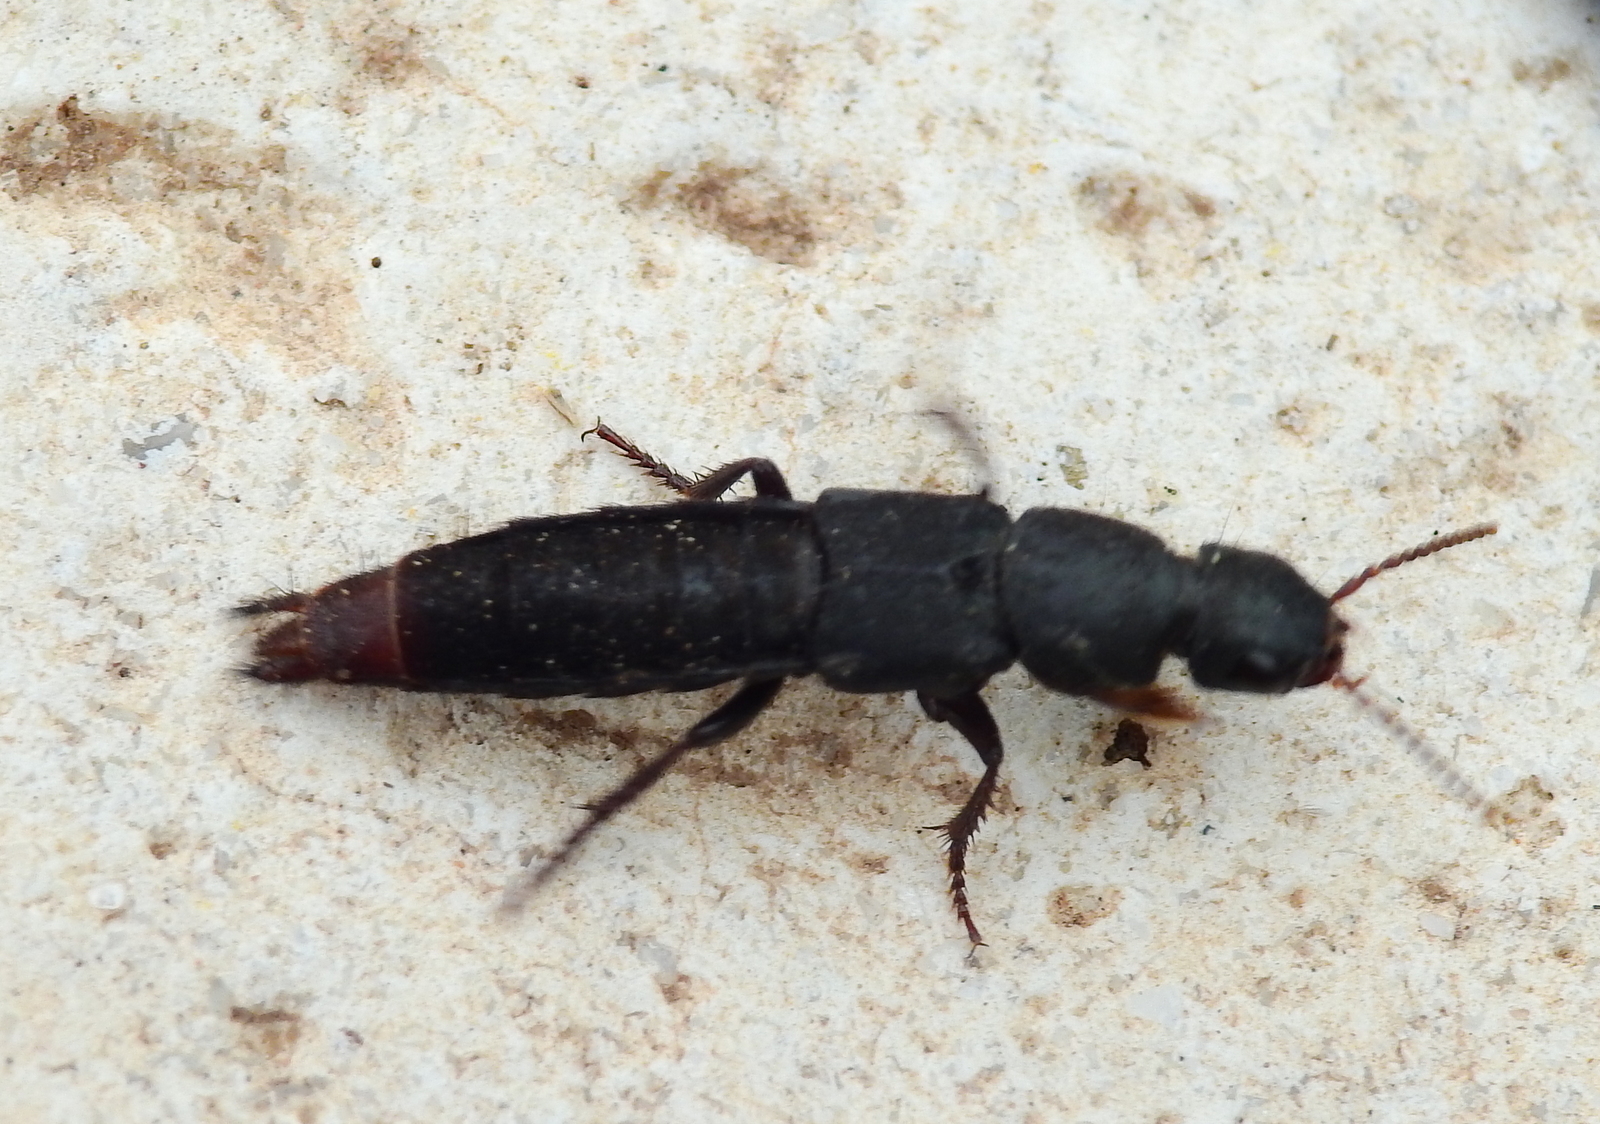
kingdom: Animalia
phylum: Arthropoda
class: Insecta
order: Coleoptera
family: Staphylinidae
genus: Platydracus
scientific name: Platydracus scabrosus
